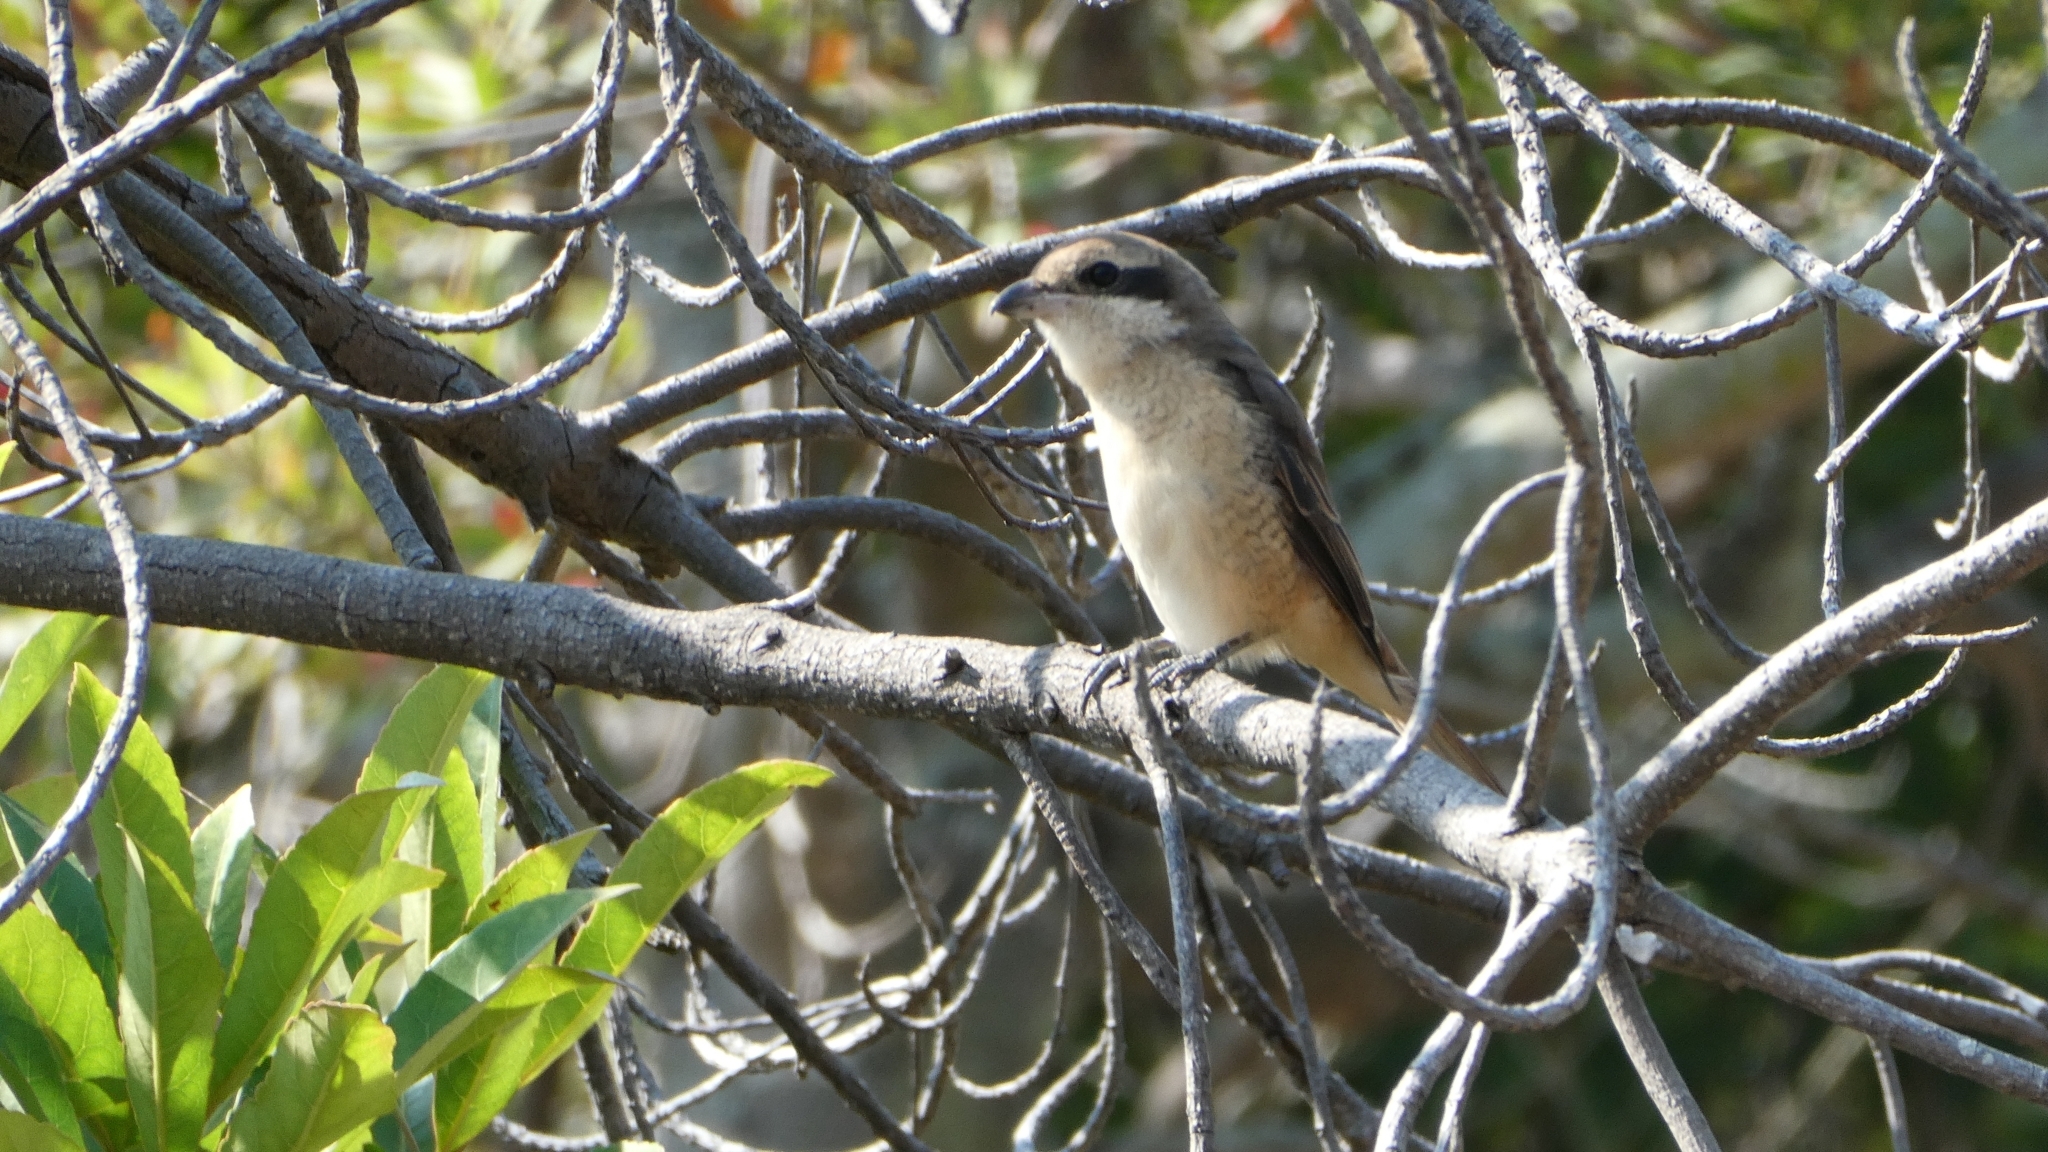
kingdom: Animalia
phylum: Chordata
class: Aves
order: Passeriformes
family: Laniidae
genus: Lanius
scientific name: Lanius cristatus
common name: Brown shrike
